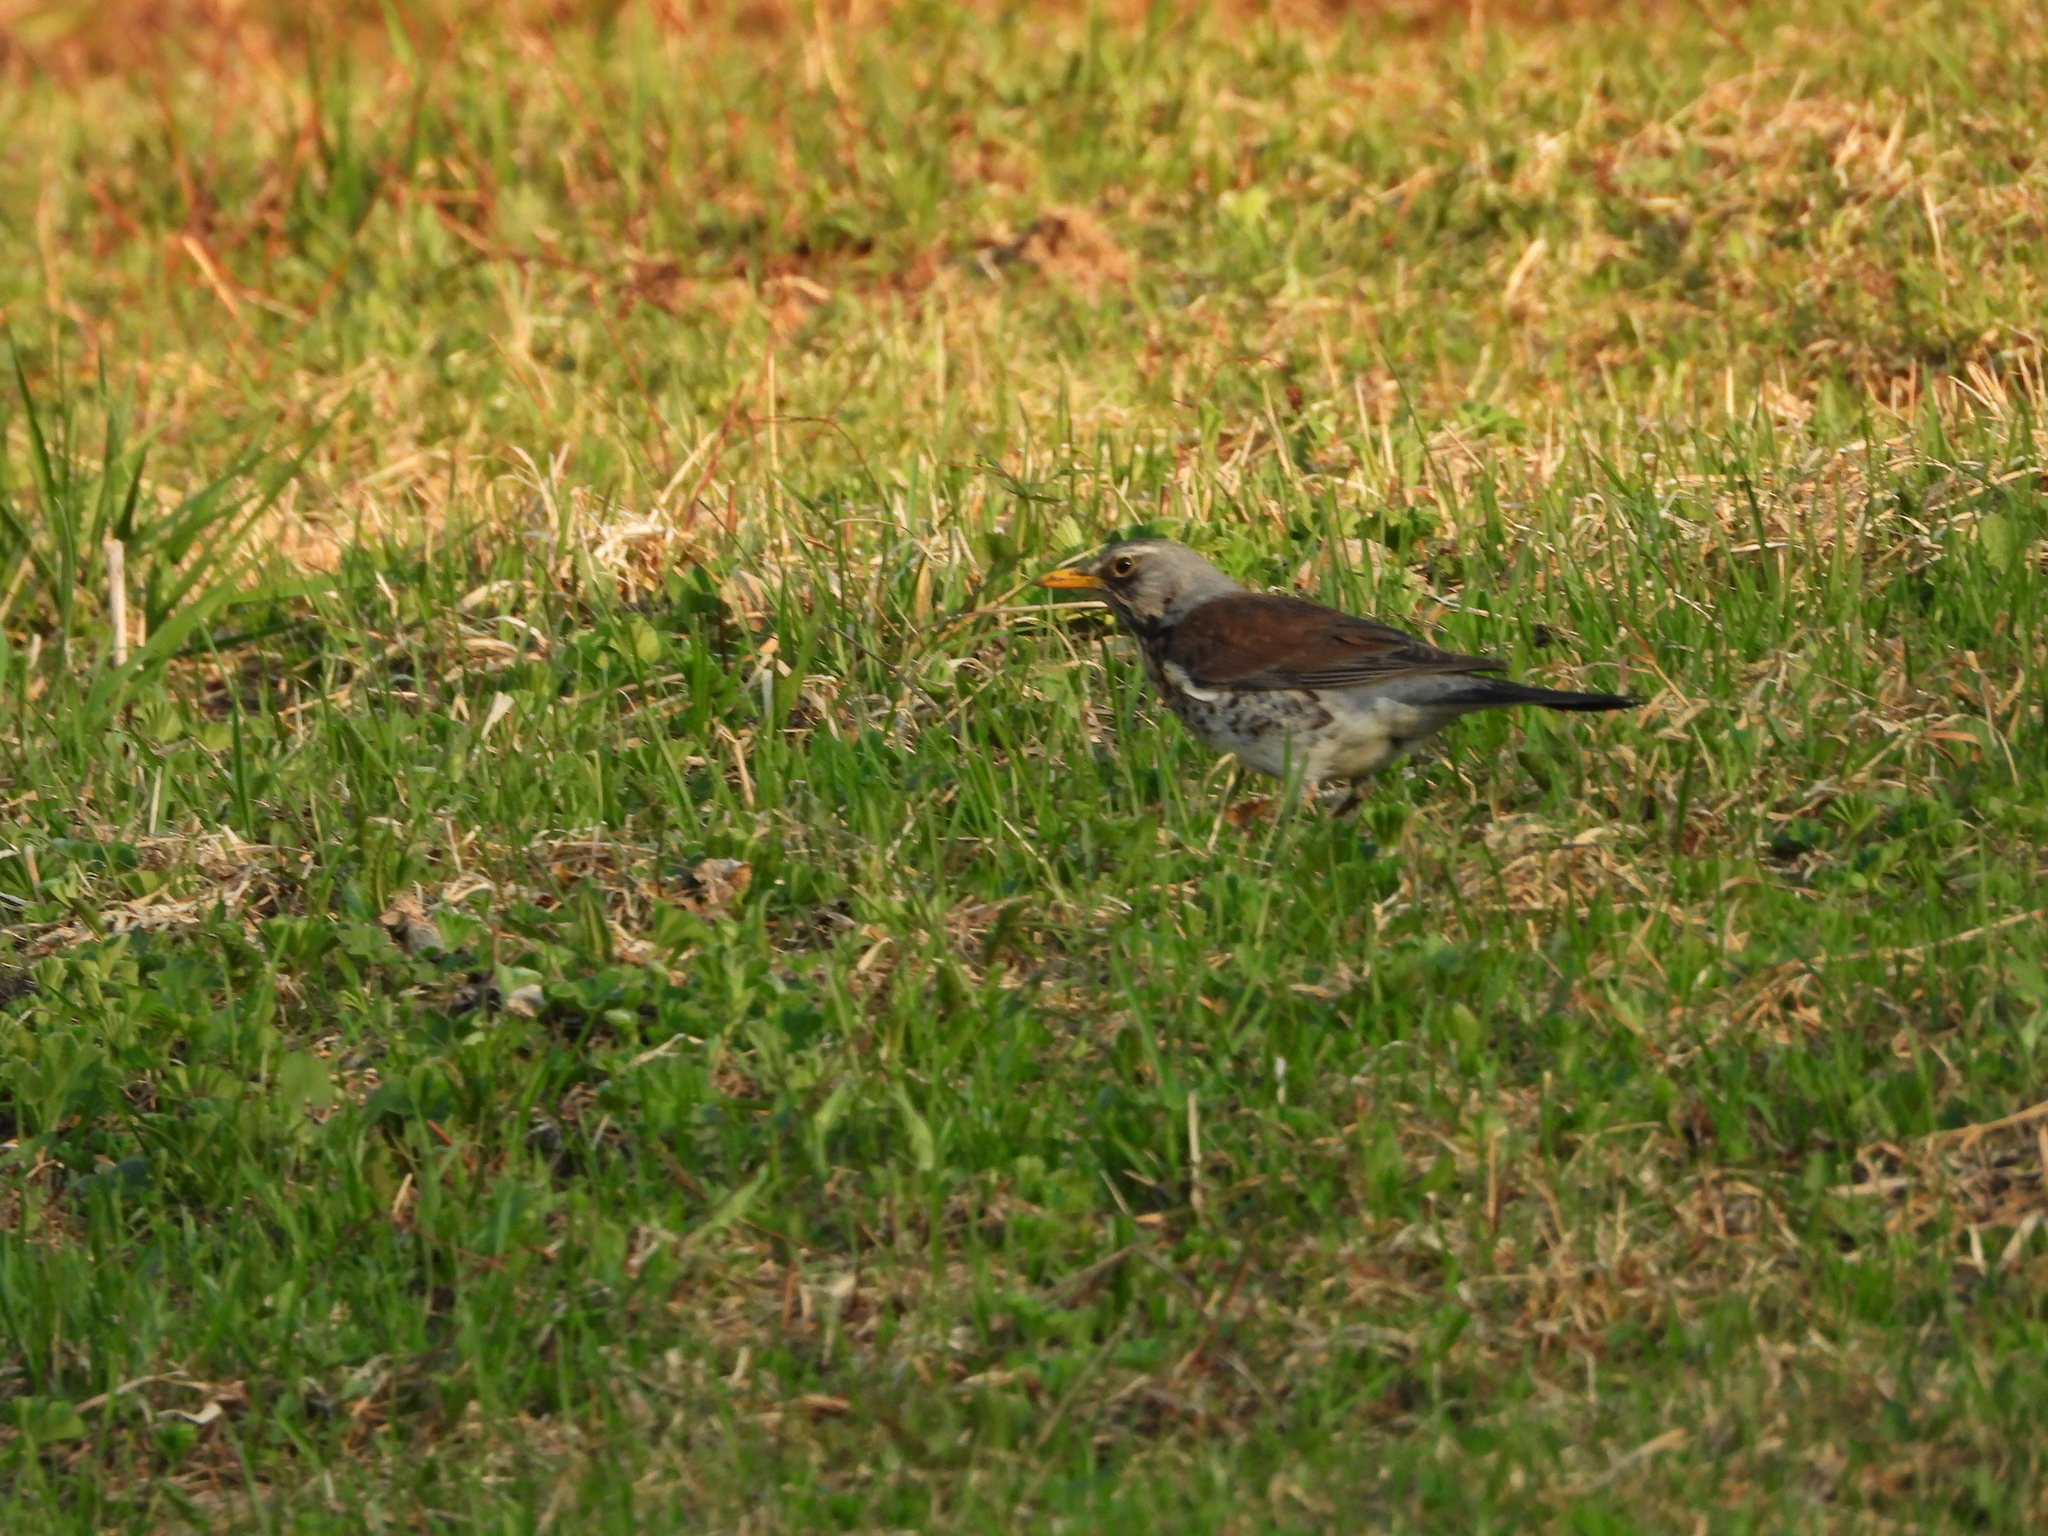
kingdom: Animalia
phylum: Chordata
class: Aves
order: Passeriformes
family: Turdidae
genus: Turdus
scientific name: Turdus pilaris
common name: Fieldfare
